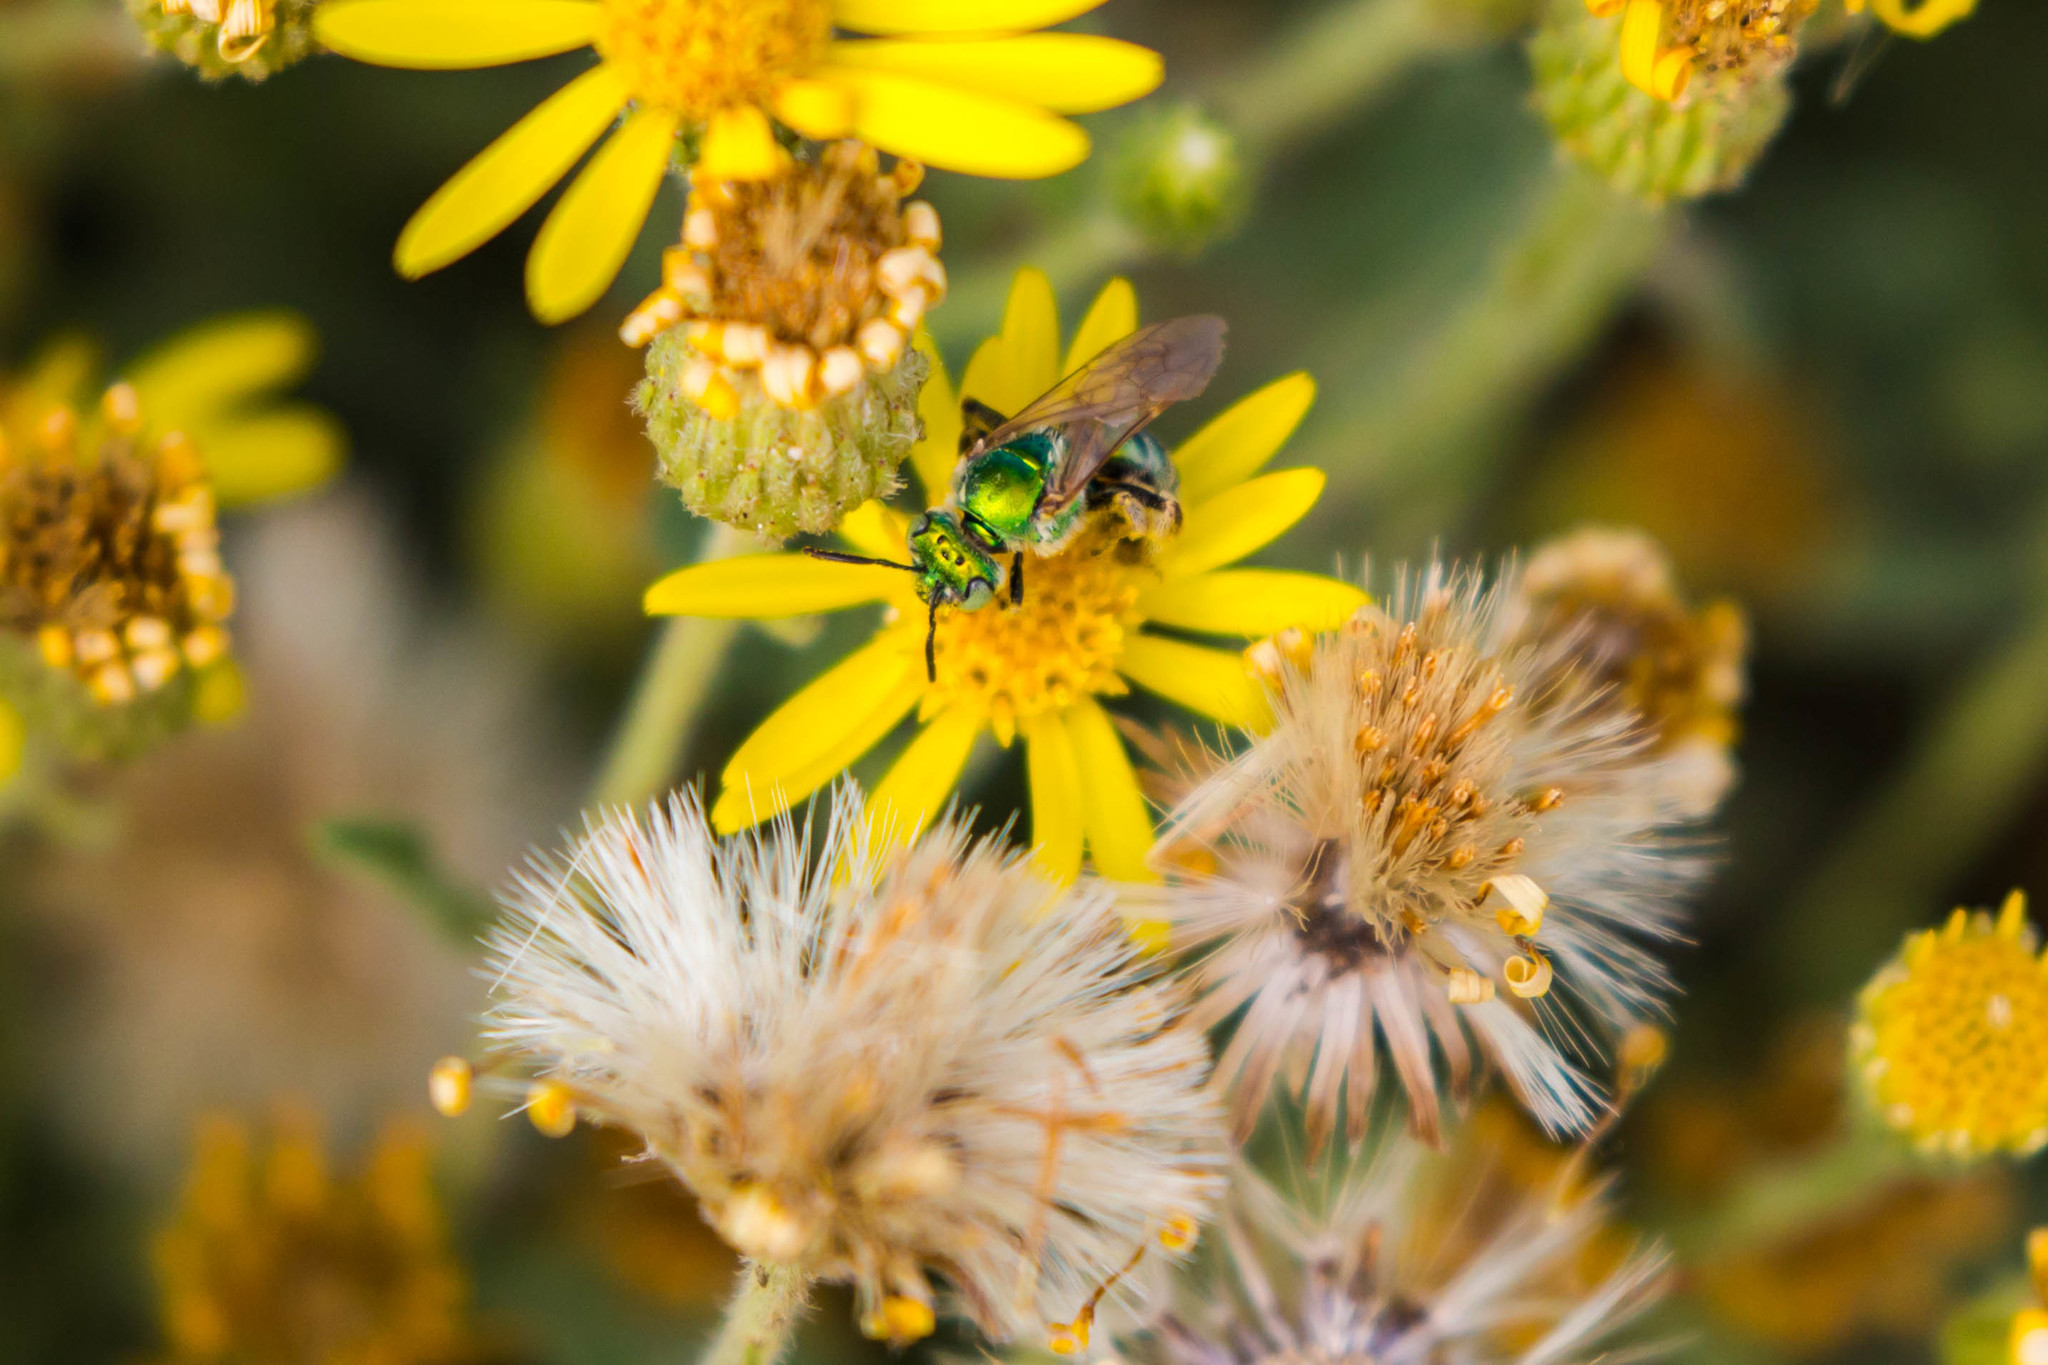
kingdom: Animalia
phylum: Arthropoda
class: Insecta
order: Hymenoptera
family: Halictidae
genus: Agapostemon
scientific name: Agapostemon
